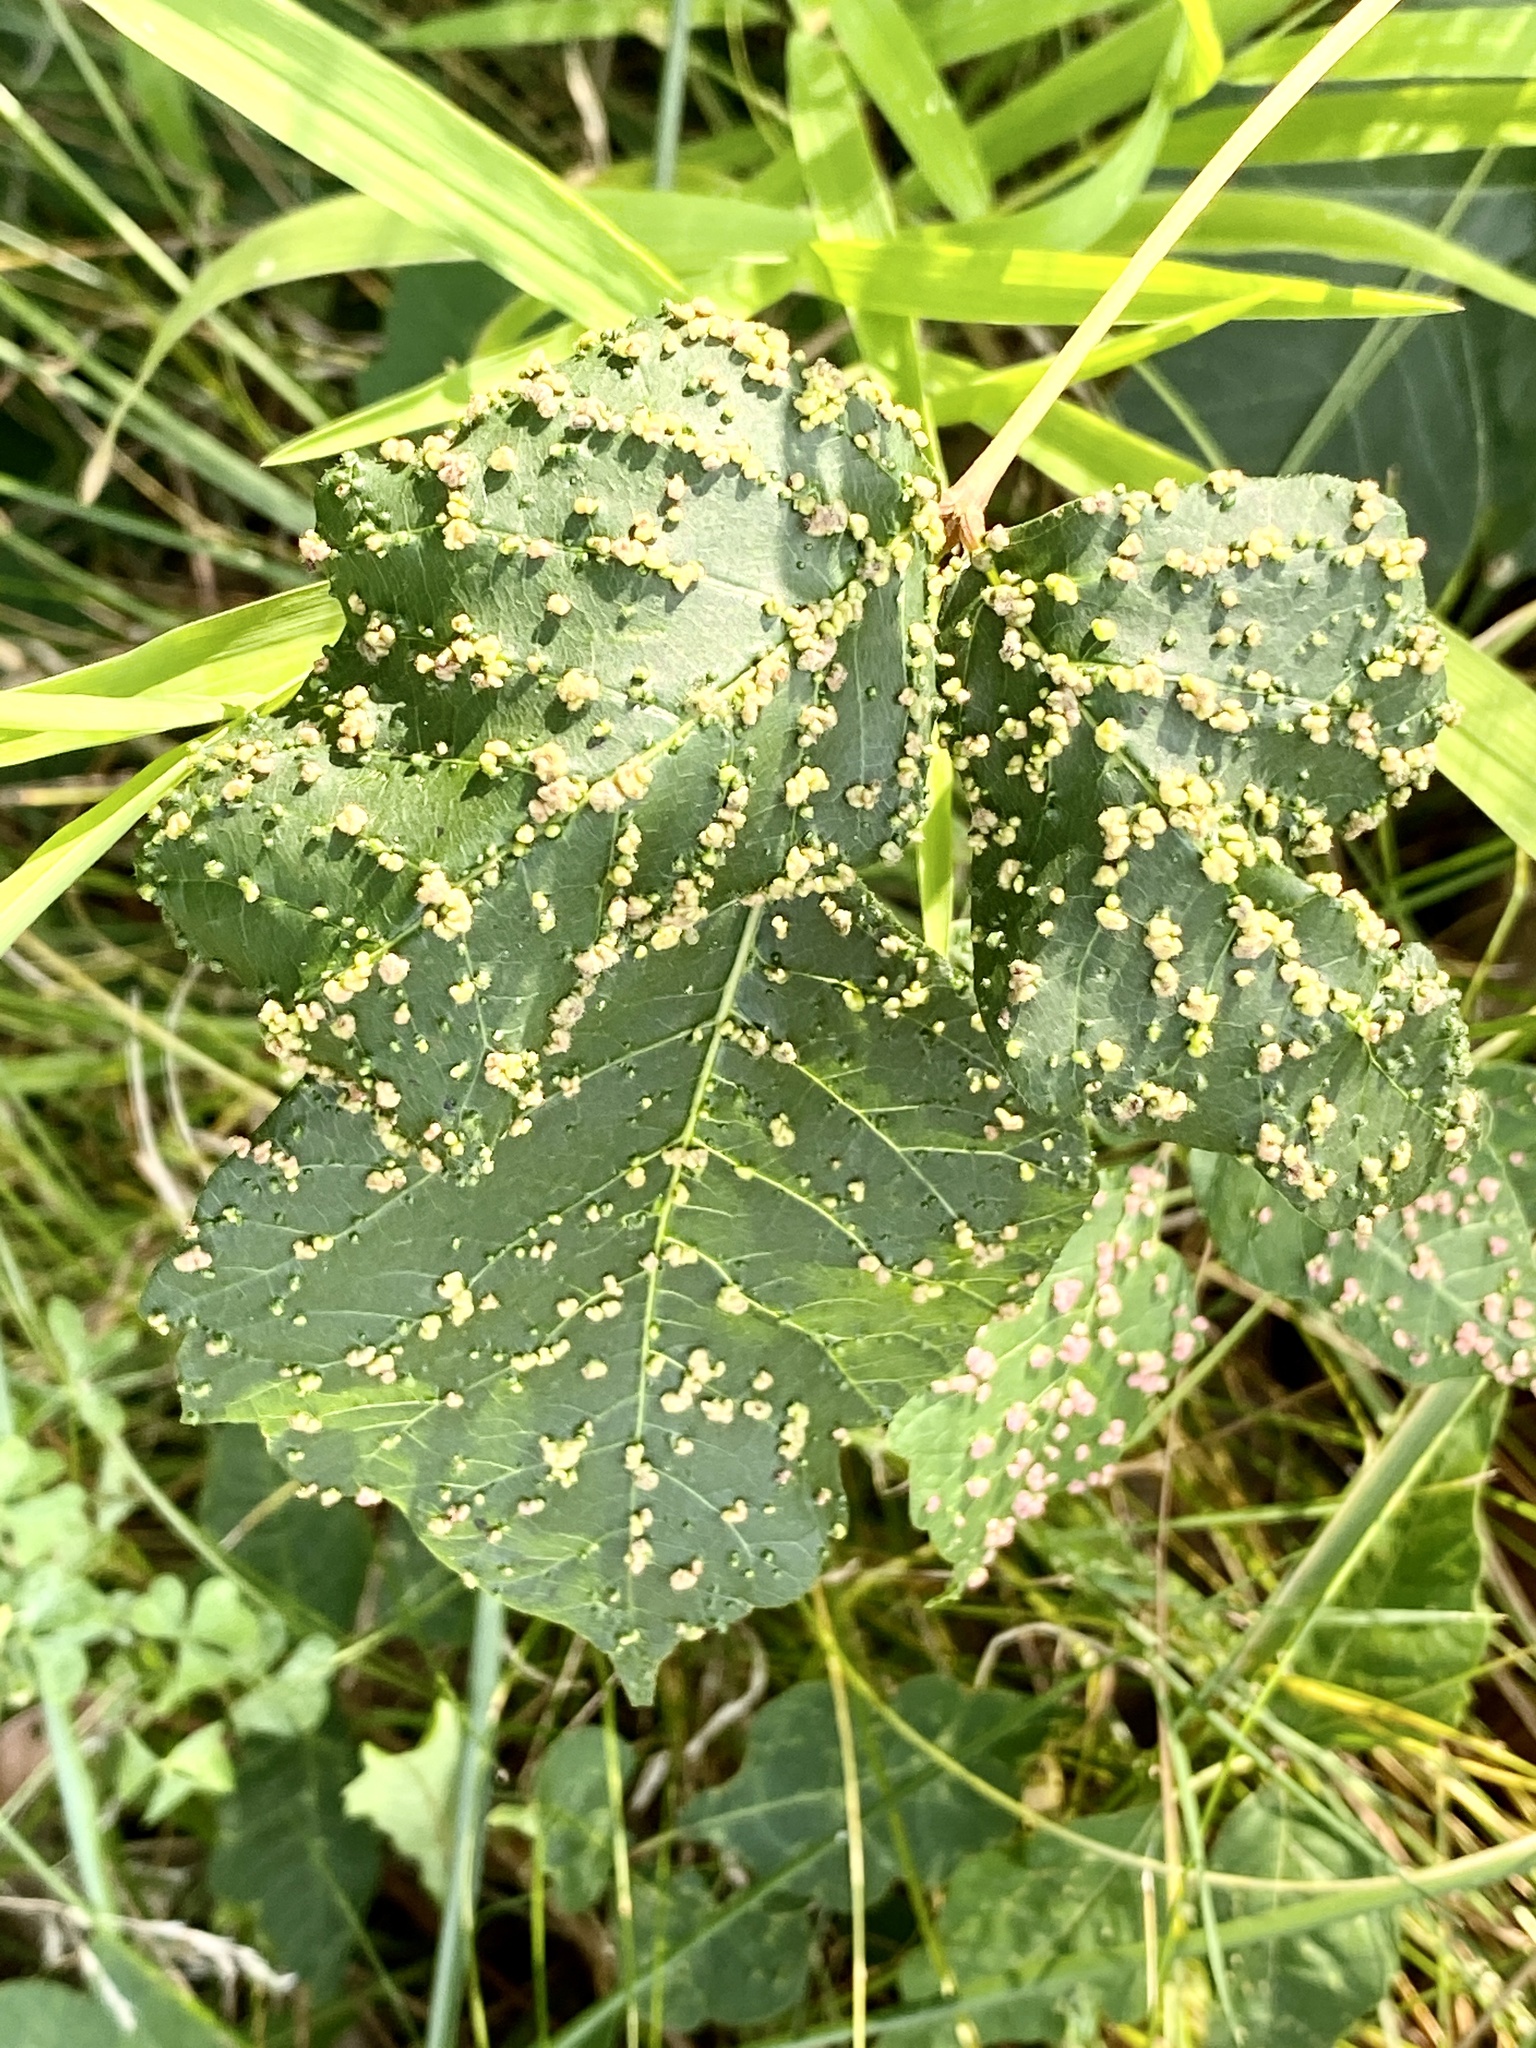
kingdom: Animalia
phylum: Arthropoda
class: Arachnida
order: Trombidiformes
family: Eriophyidae
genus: Aculops
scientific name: Aculops
